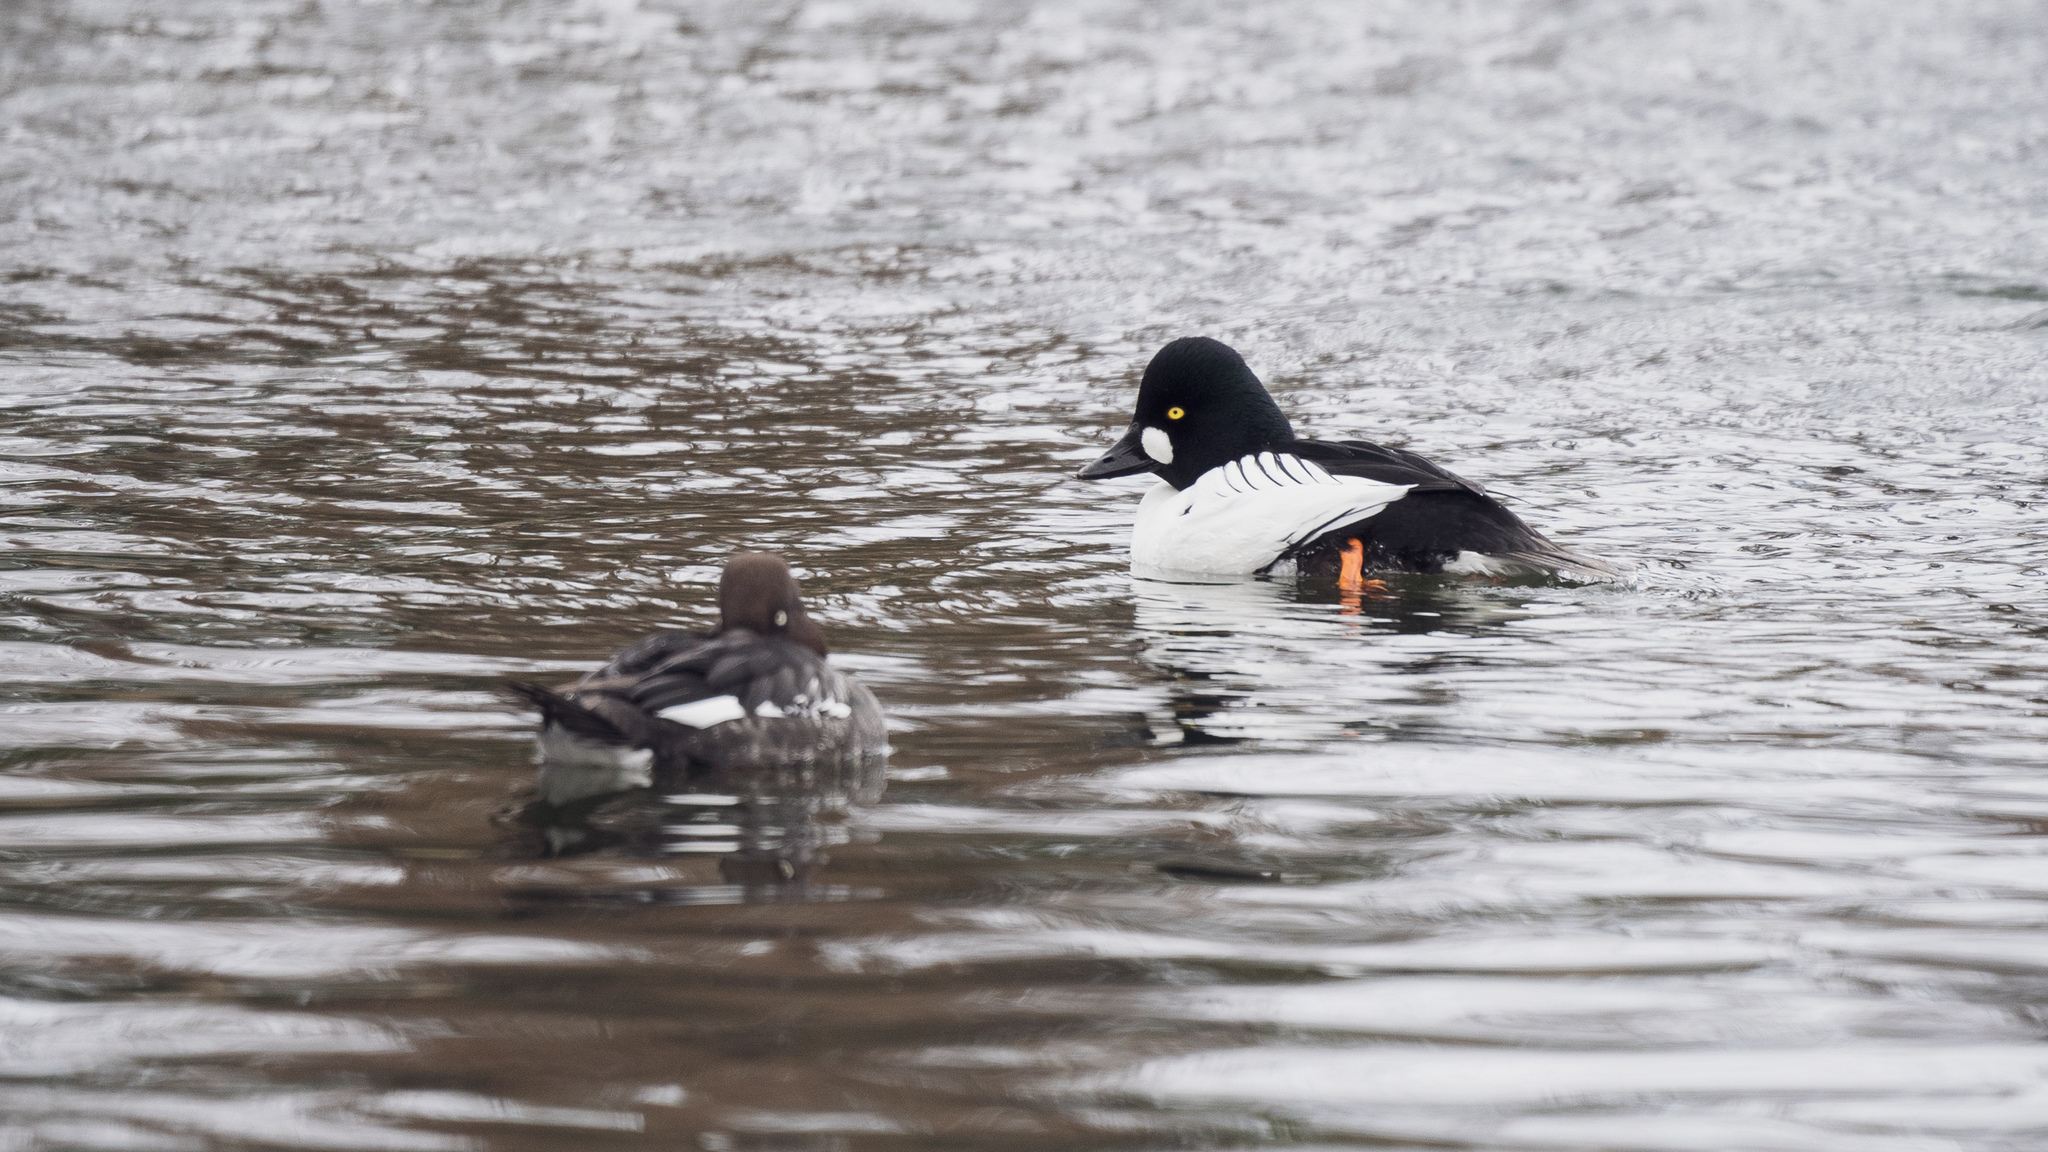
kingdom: Animalia
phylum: Chordata
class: Aves
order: Anseriformes
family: Anatidae
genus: Bucephala
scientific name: Bucephala clangula
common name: Common goldeneye
